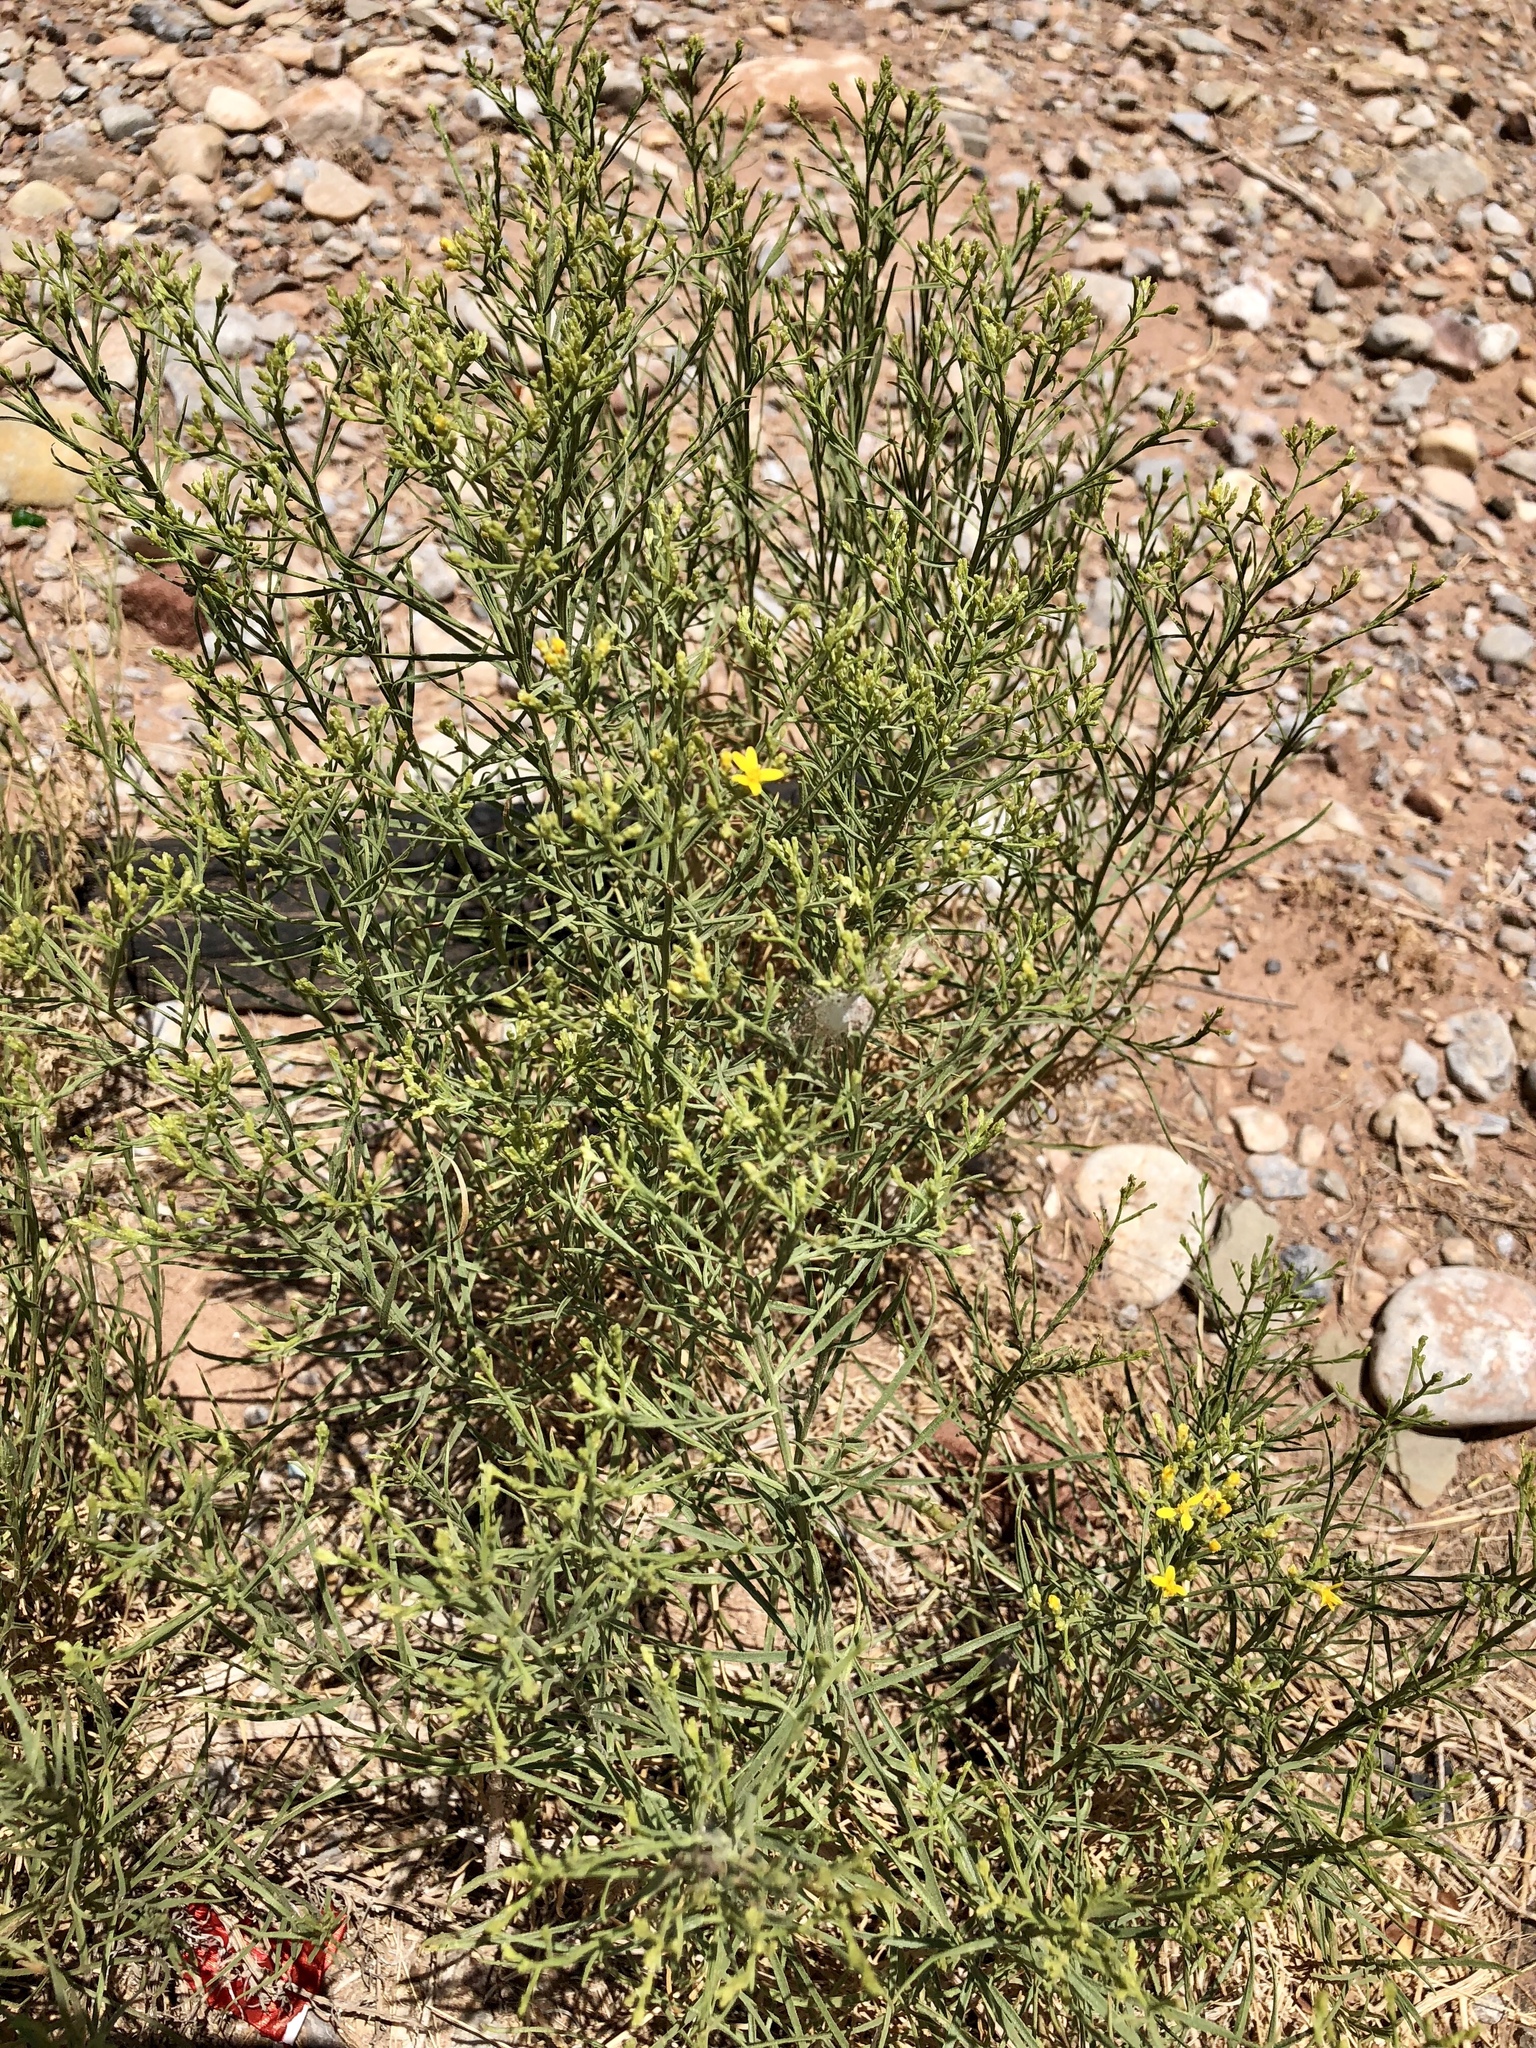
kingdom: Plantae
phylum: Tracheophyta
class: Magnoliopsida
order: Asterales
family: Asteraceae
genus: Gutierrezia
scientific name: Gutierrezia sarothrae
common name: Broom snakeweed
